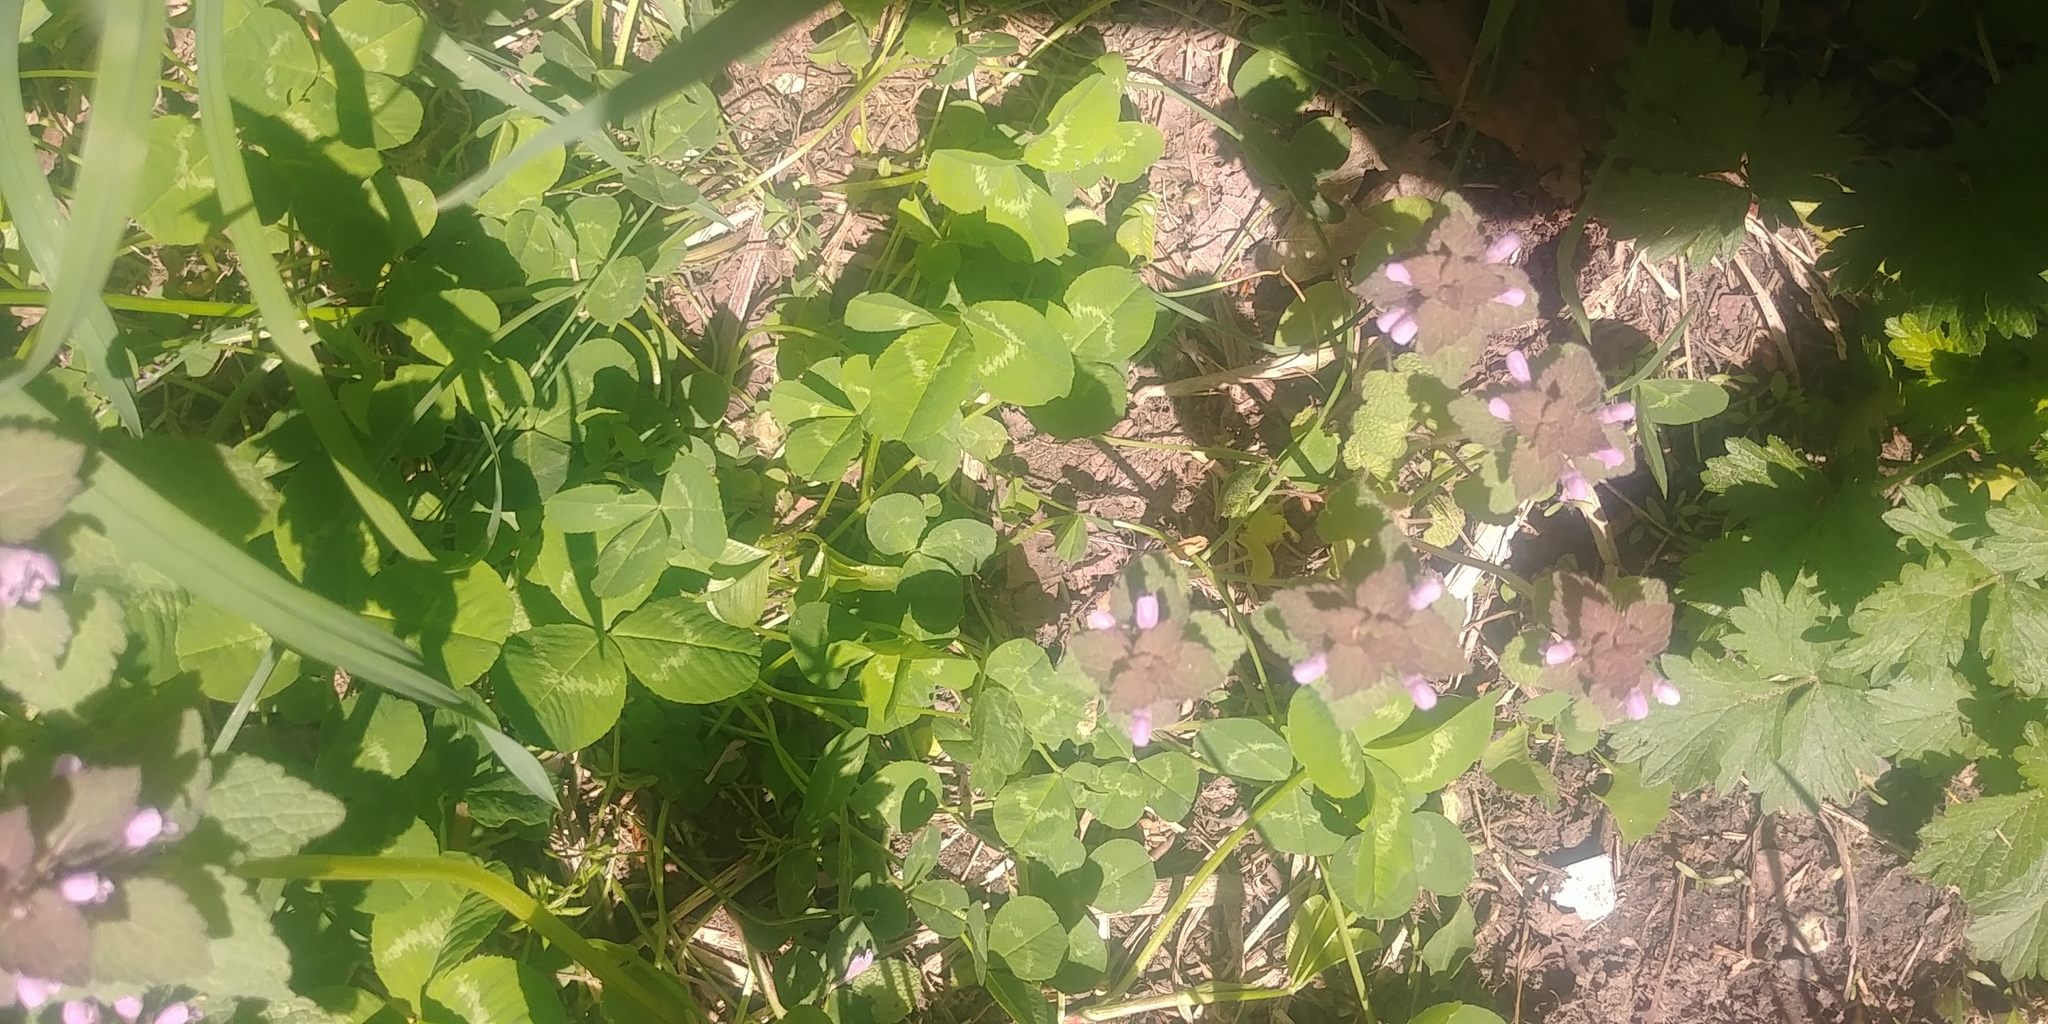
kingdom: Plantae
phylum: Tracheophyta
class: Magnoliopsida
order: Fabales
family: Fabaceae
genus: Trifolium
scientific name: Trifolium repens
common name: White clover
